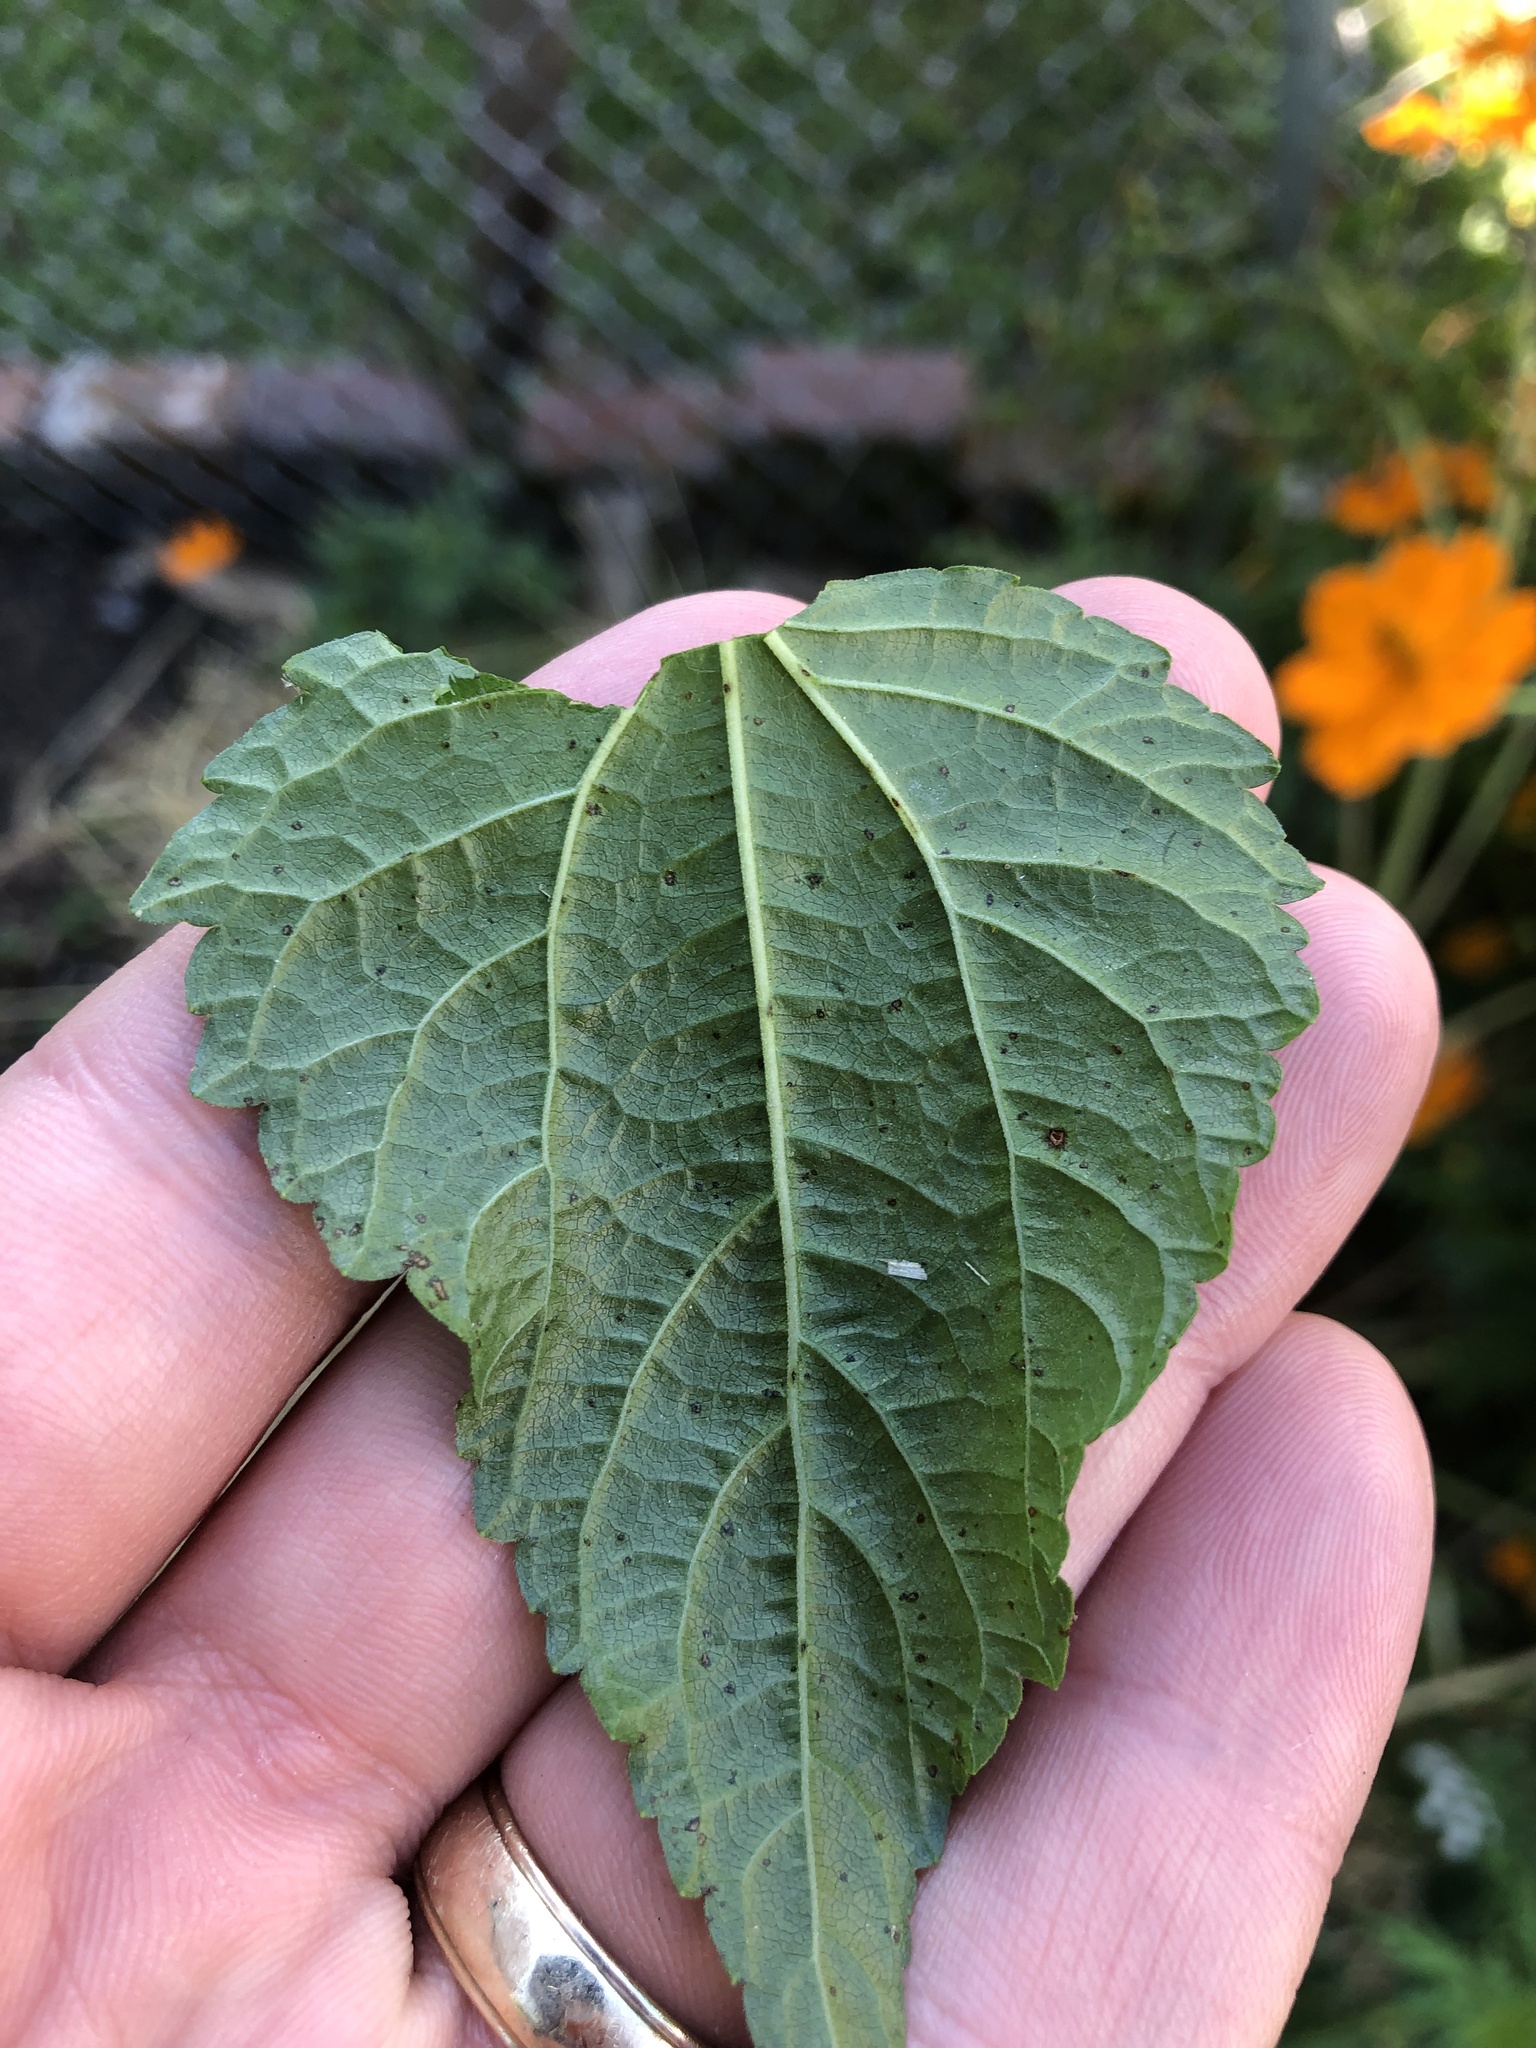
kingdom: Plantae
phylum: Tracheophyta
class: Magnoliopsida
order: Asterales
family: Asteraceae
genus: Ageratina
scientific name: Ageratina altissima
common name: White snakeroot
